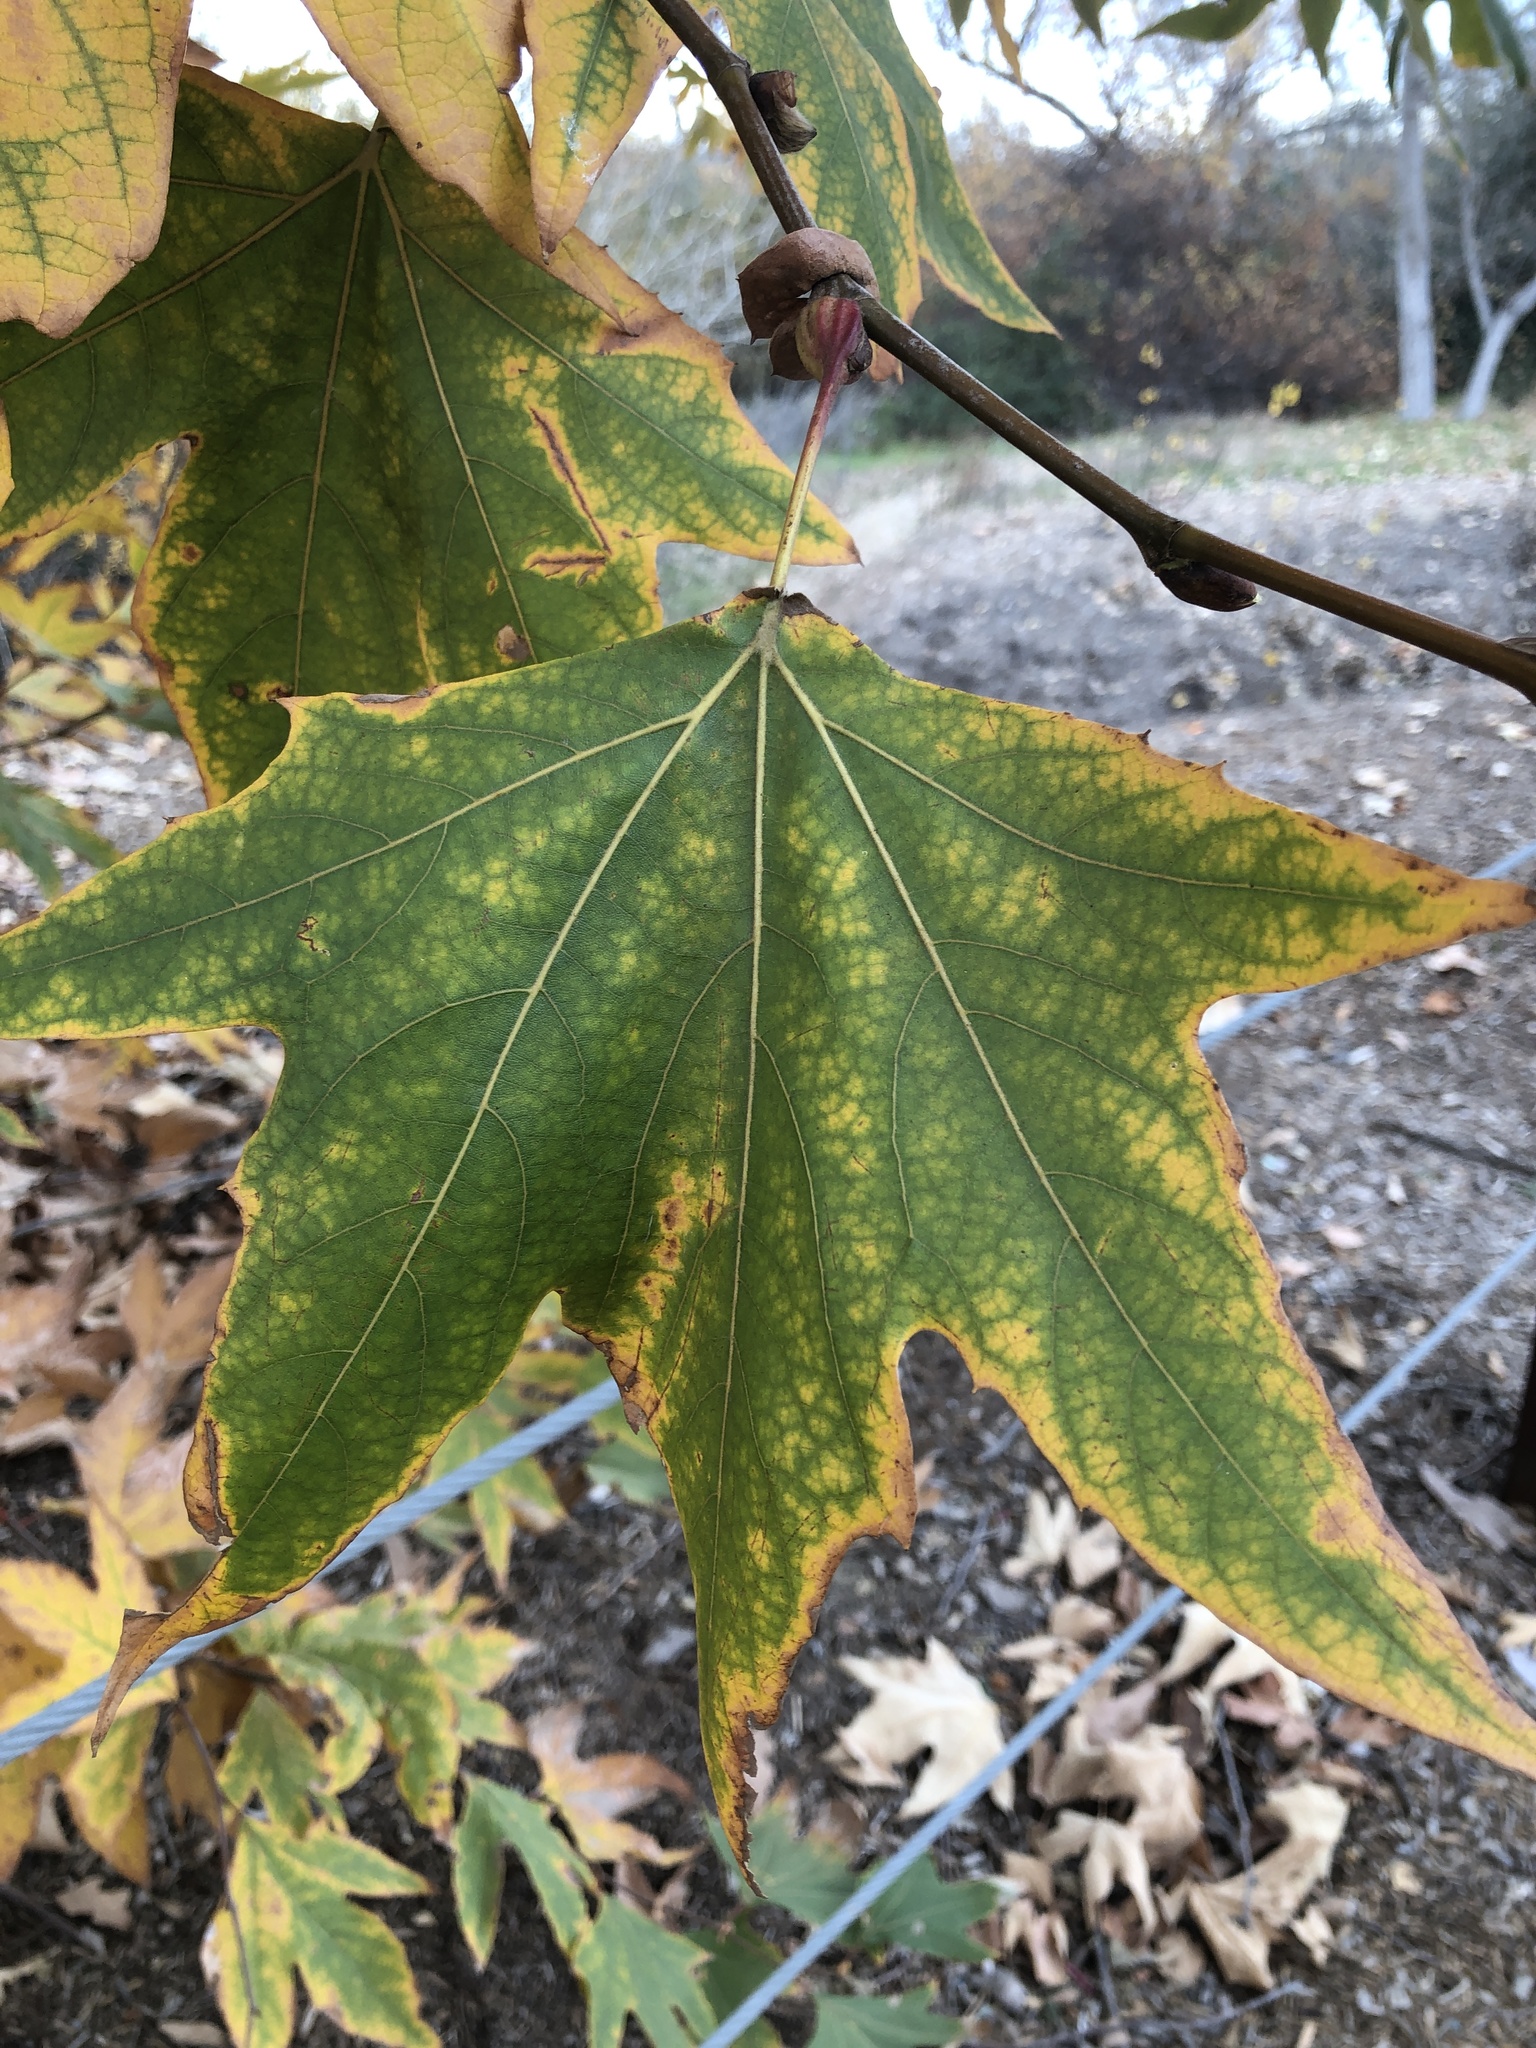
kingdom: Plantae
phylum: Tracheophyta
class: Magnoliopsida
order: Proteales
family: Platanaceae
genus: Platanus
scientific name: Platanus racemosa
